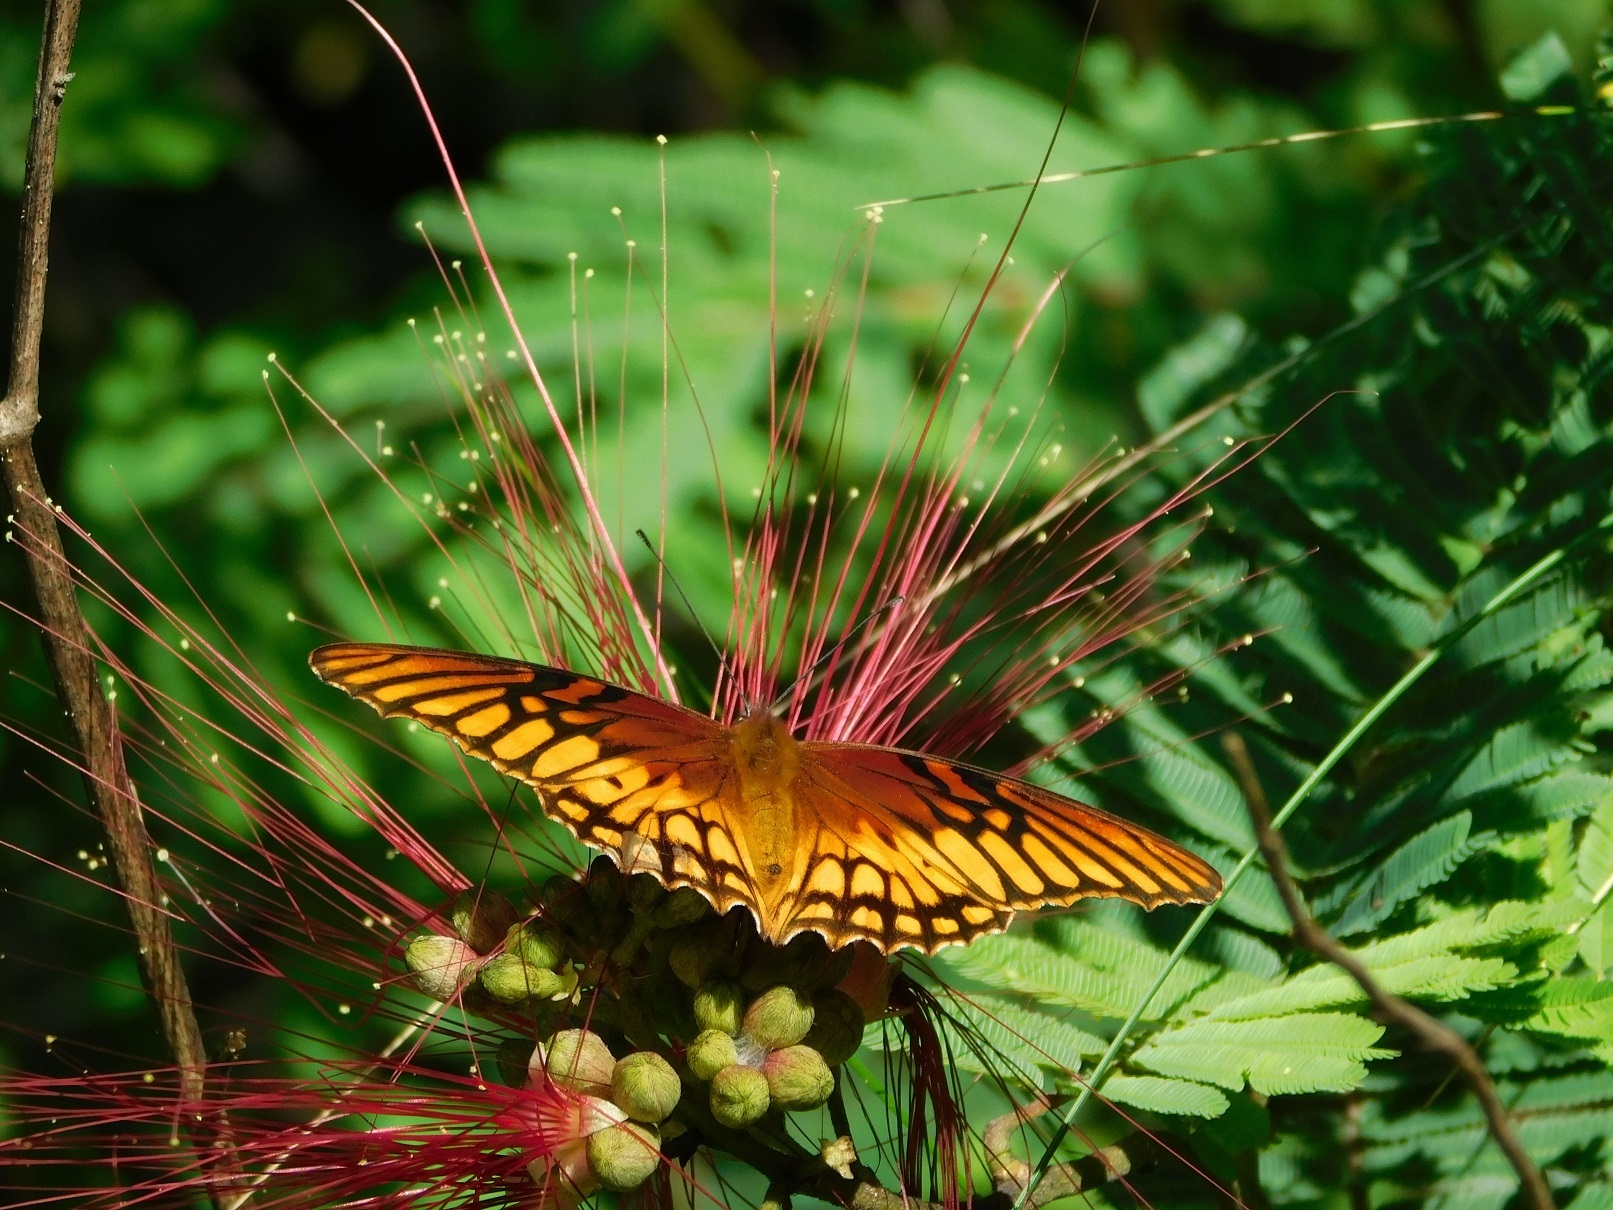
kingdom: Animalia
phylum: Arthropoda
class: Insecta
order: Lepidoptera
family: Nymphalidae
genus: Dione
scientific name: Dione moneta
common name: Mexican silverspot
